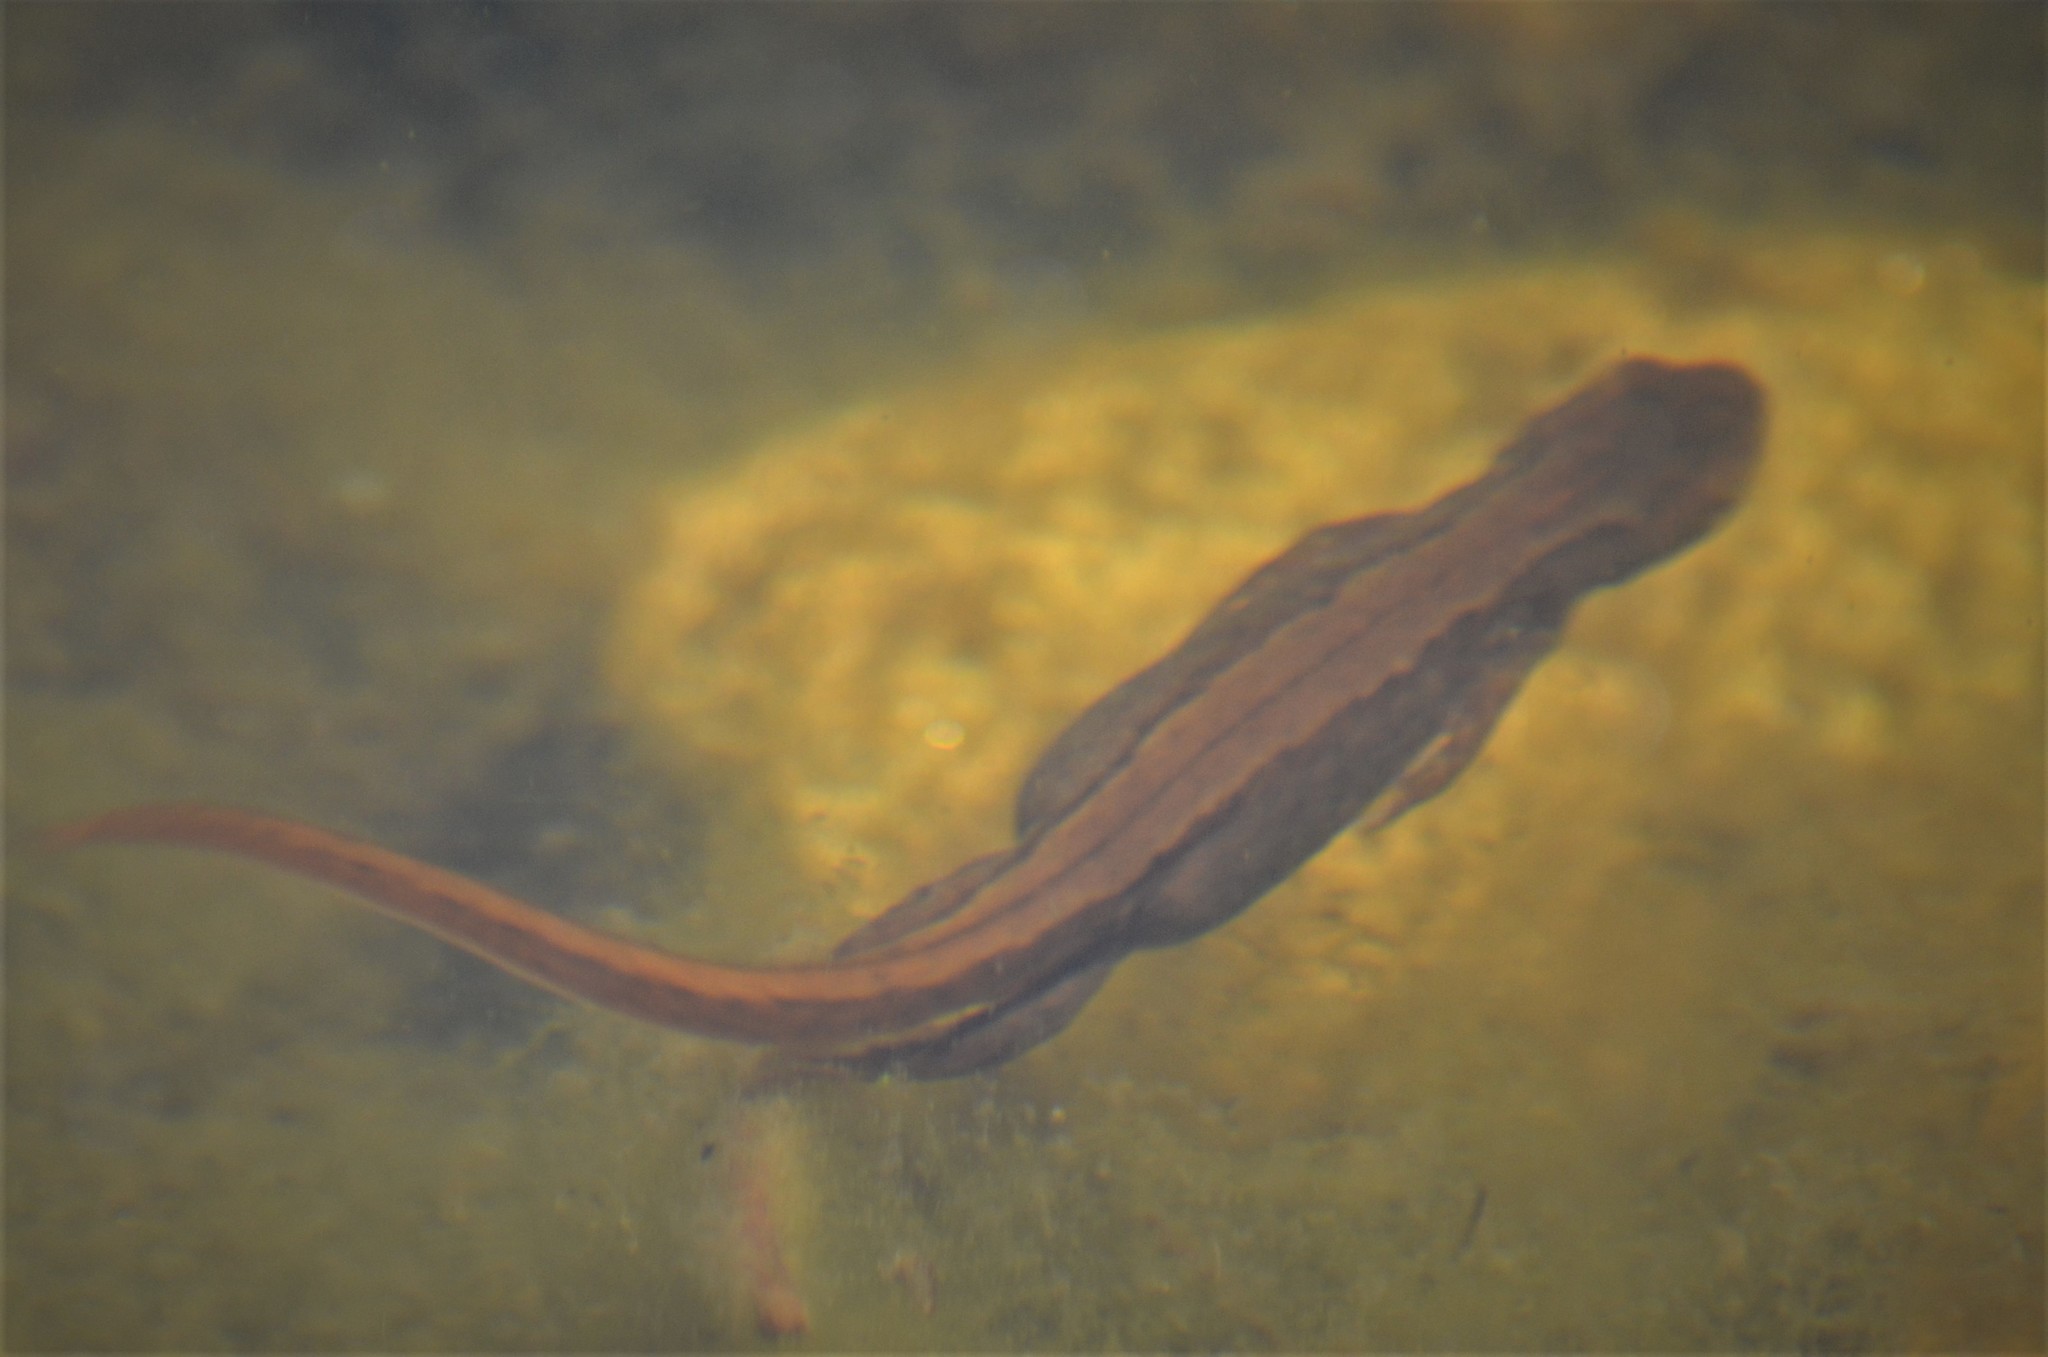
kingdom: Animalia
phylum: Chordata
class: Amphibia
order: Caudata
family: Salamandridae
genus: Lissotriton
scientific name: Lissotriton vulgaris
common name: Smooth newt
